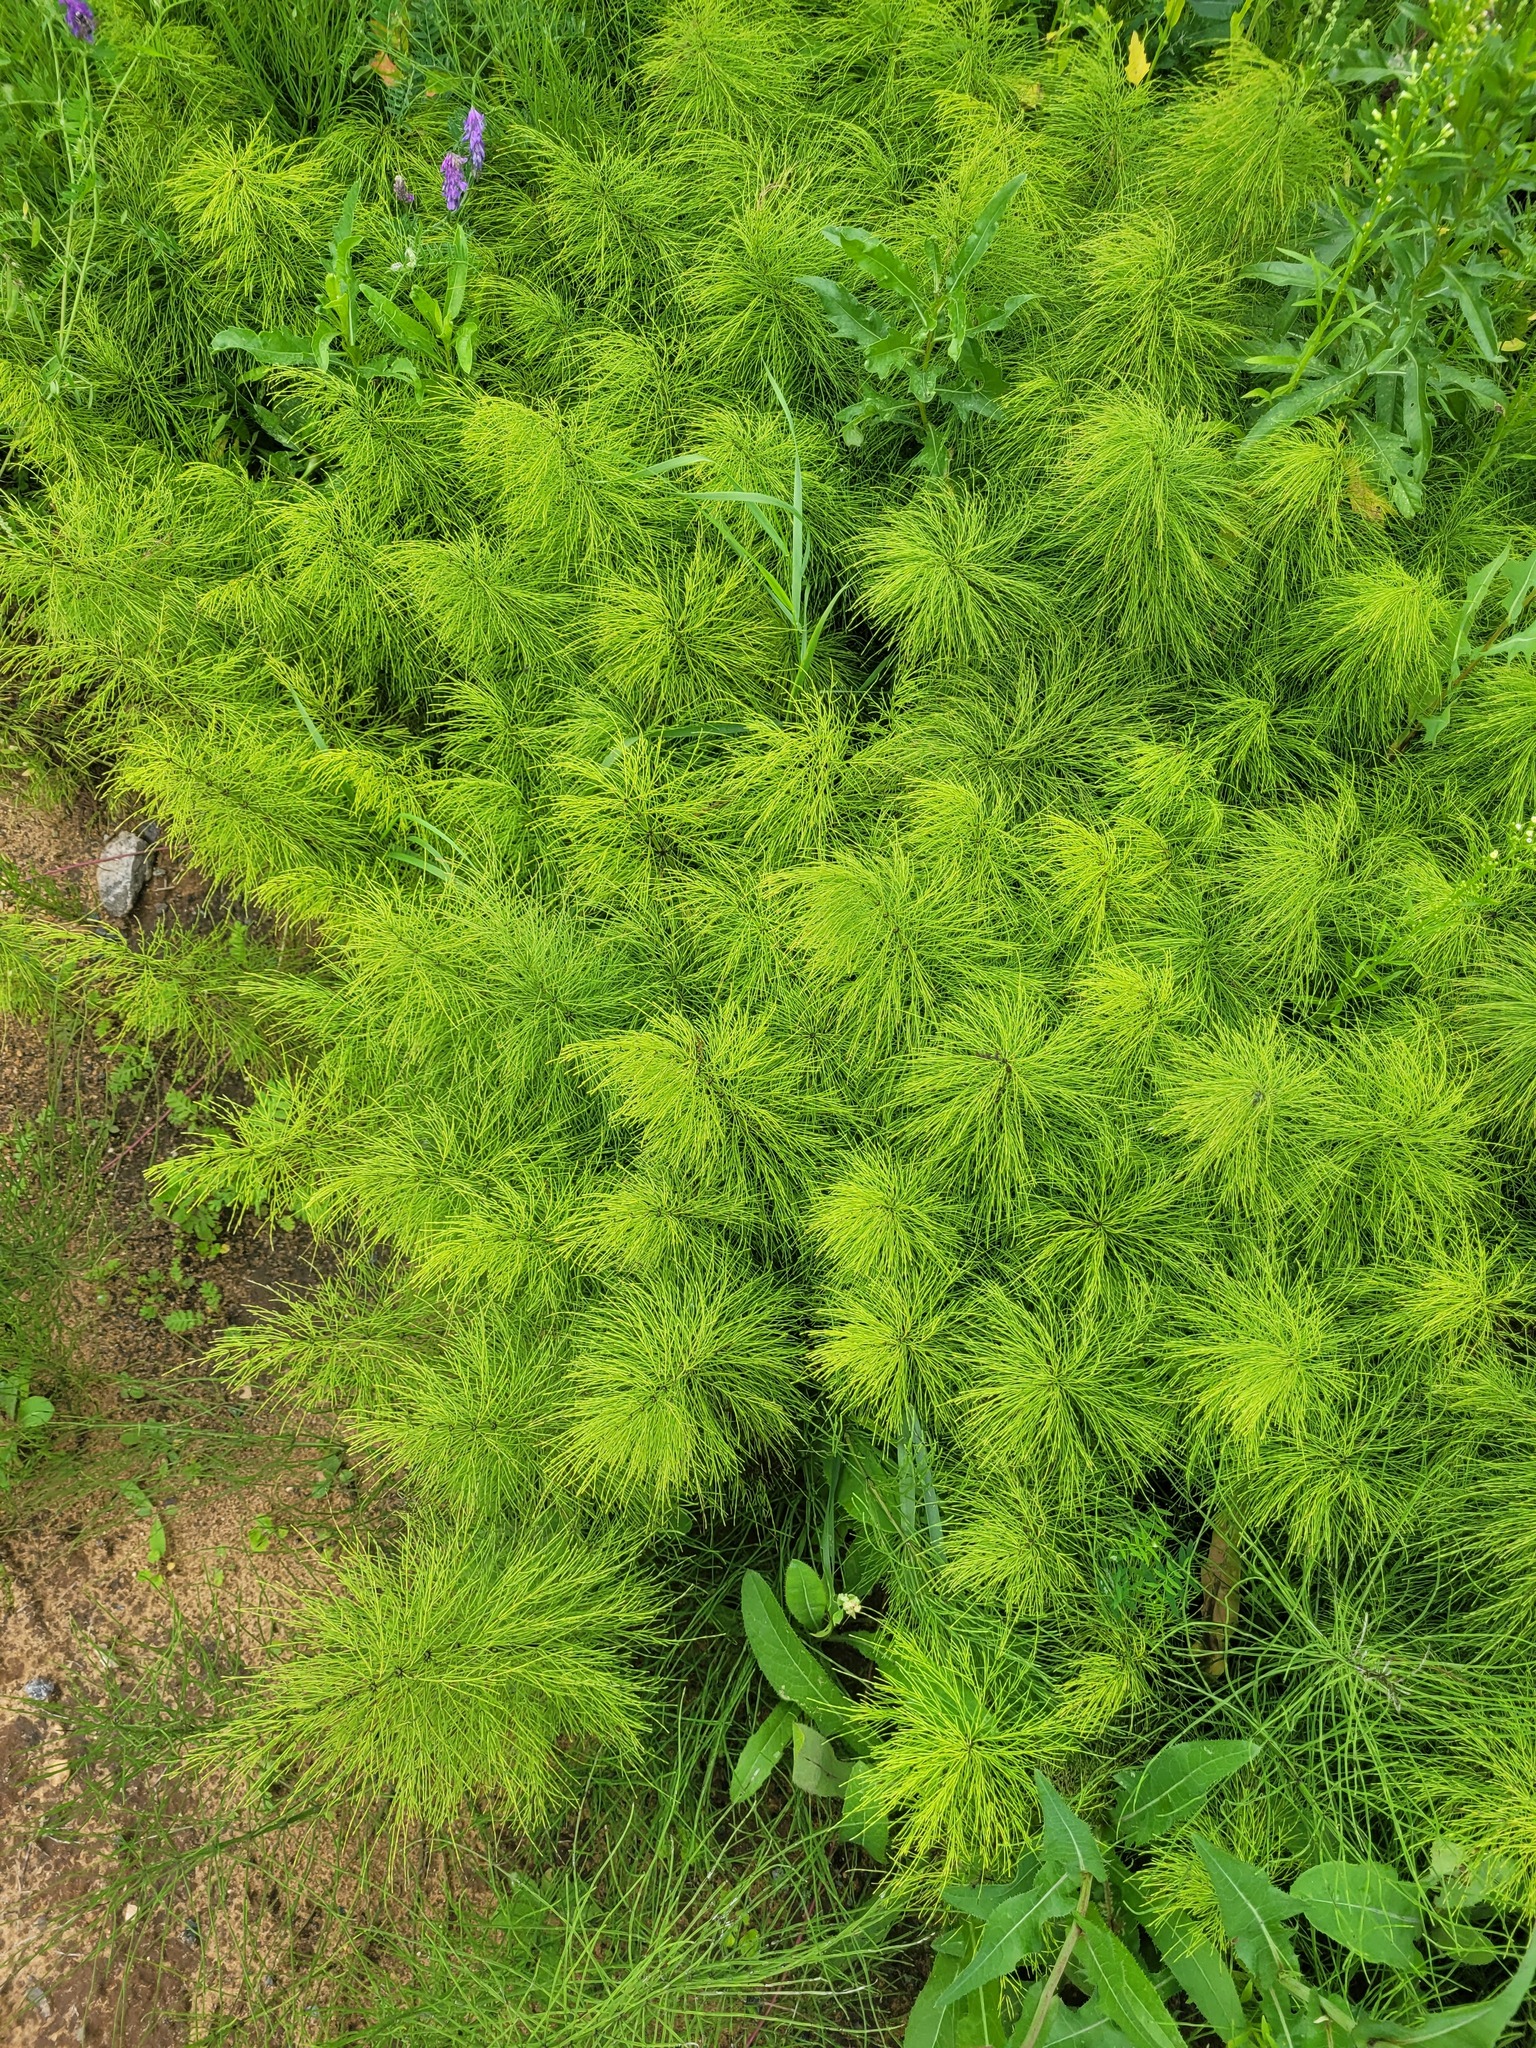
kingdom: Plantae
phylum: Tracheophyta
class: Polypodiopsida
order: Equisetales
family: Equisetaceae
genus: Equisetum
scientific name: Equisetum sylvaticum
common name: Wood horsetail
